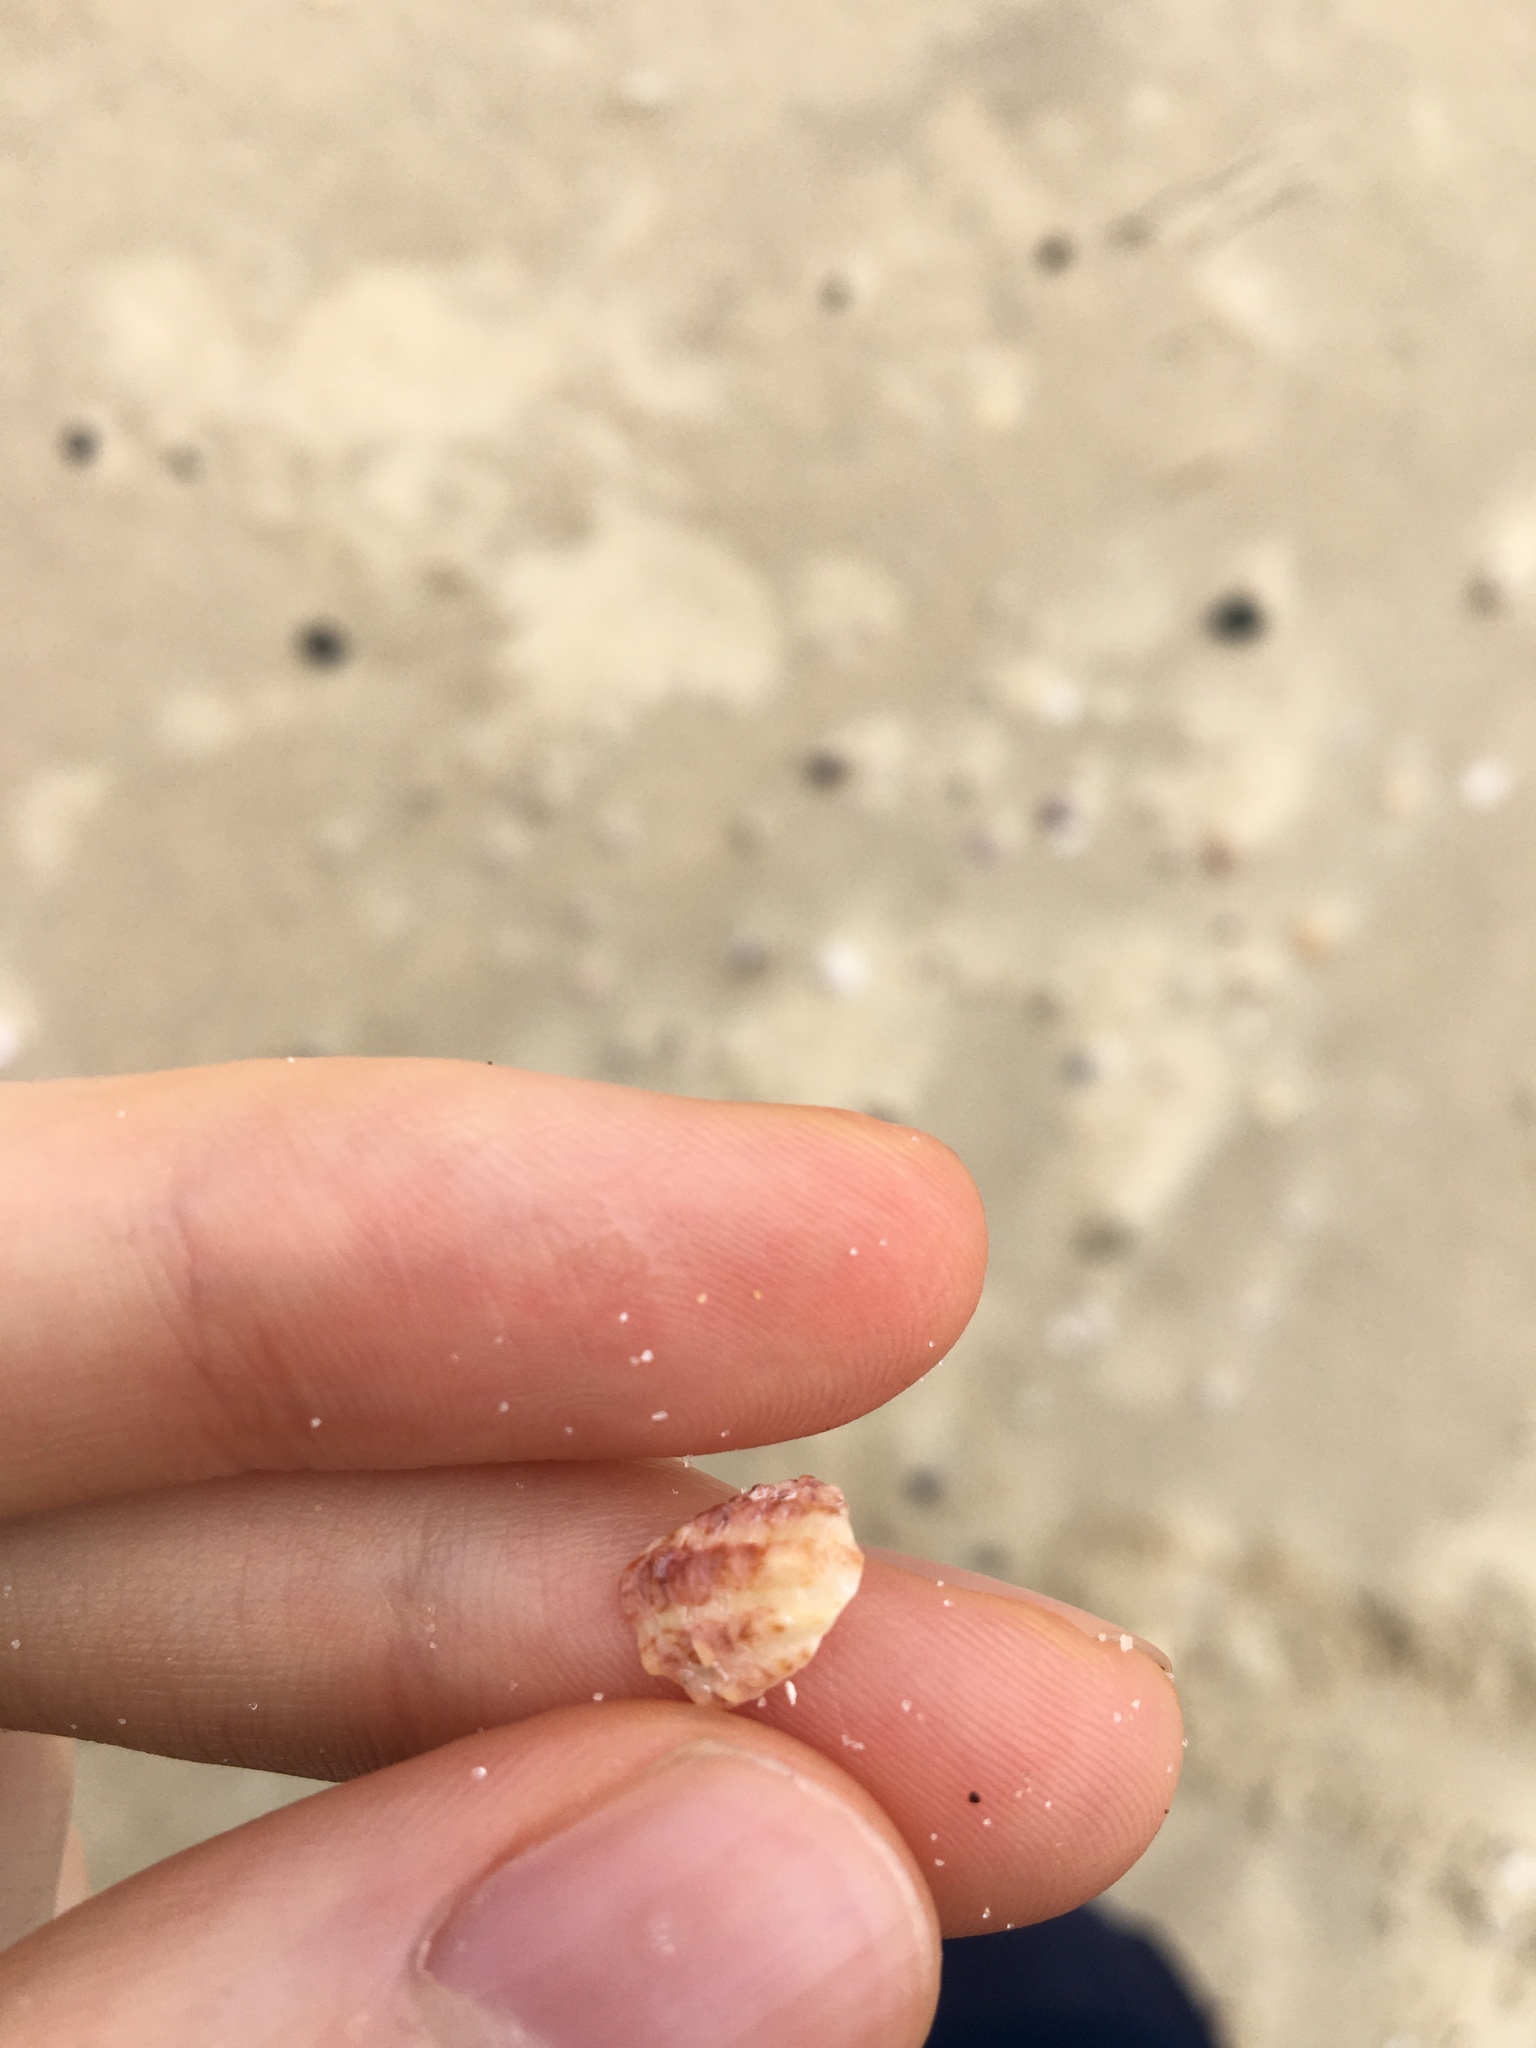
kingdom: Animalia
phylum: Mollusca
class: Bivalvia
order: Carditida
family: Carditidae
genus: Cardita
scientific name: Cardita aviculina
